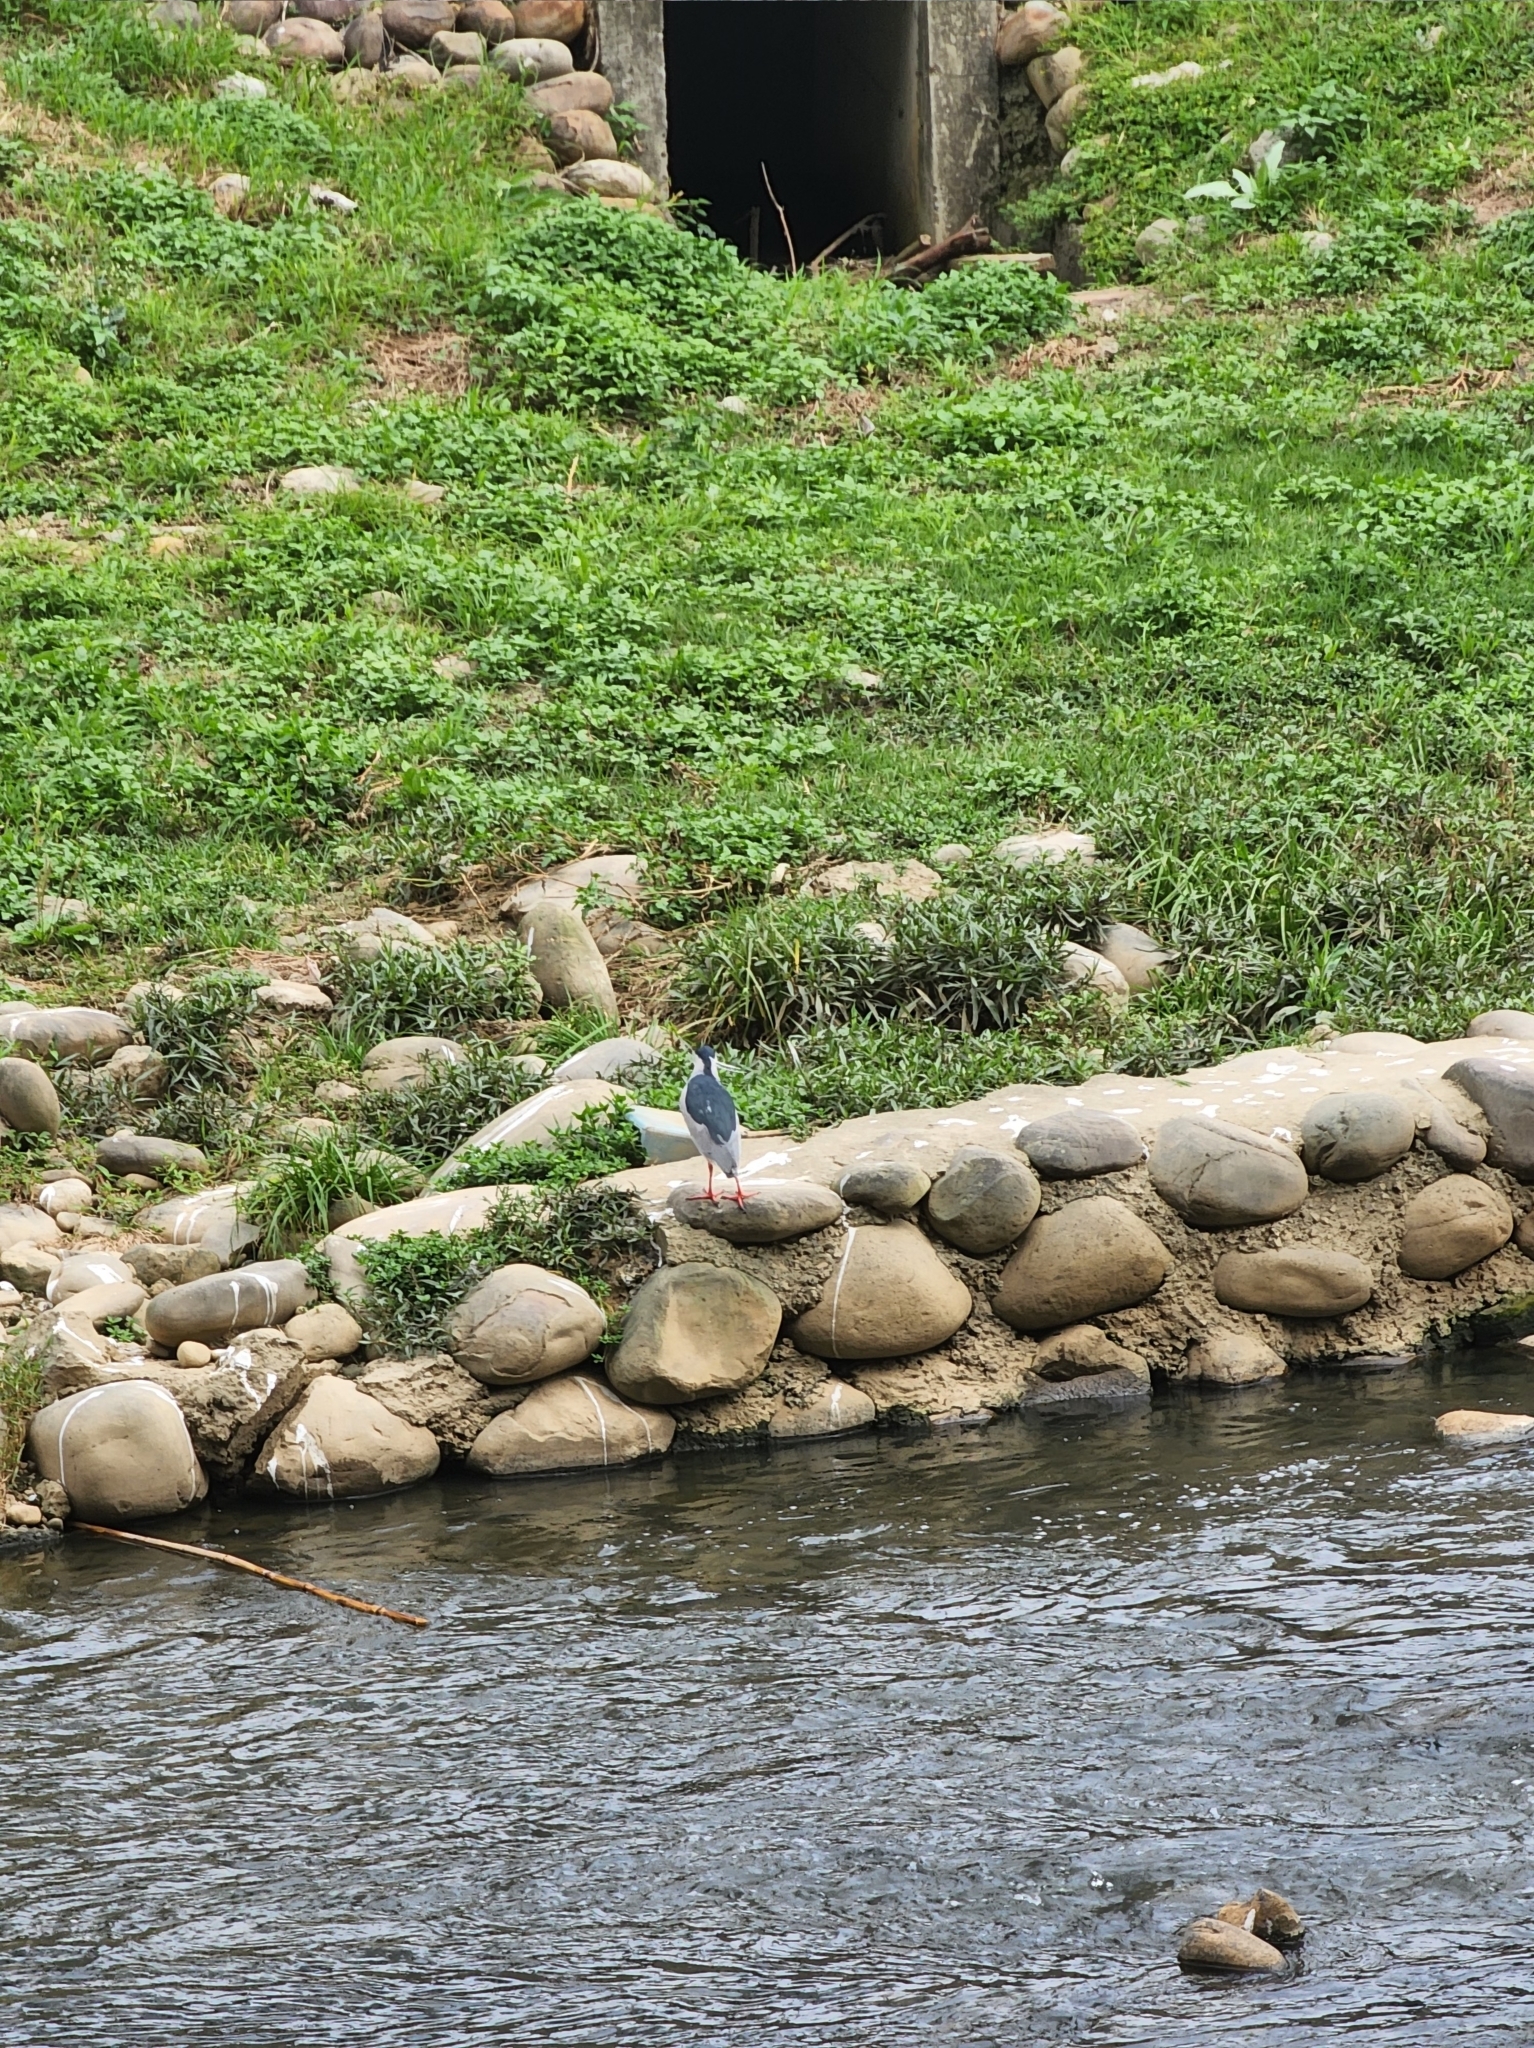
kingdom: Animalia
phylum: Chordata
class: Aves
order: Pelecaniformes
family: Ardeidae
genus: Nycticorax
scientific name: Nycticorax nycticorax
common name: Black-crowned night heron
